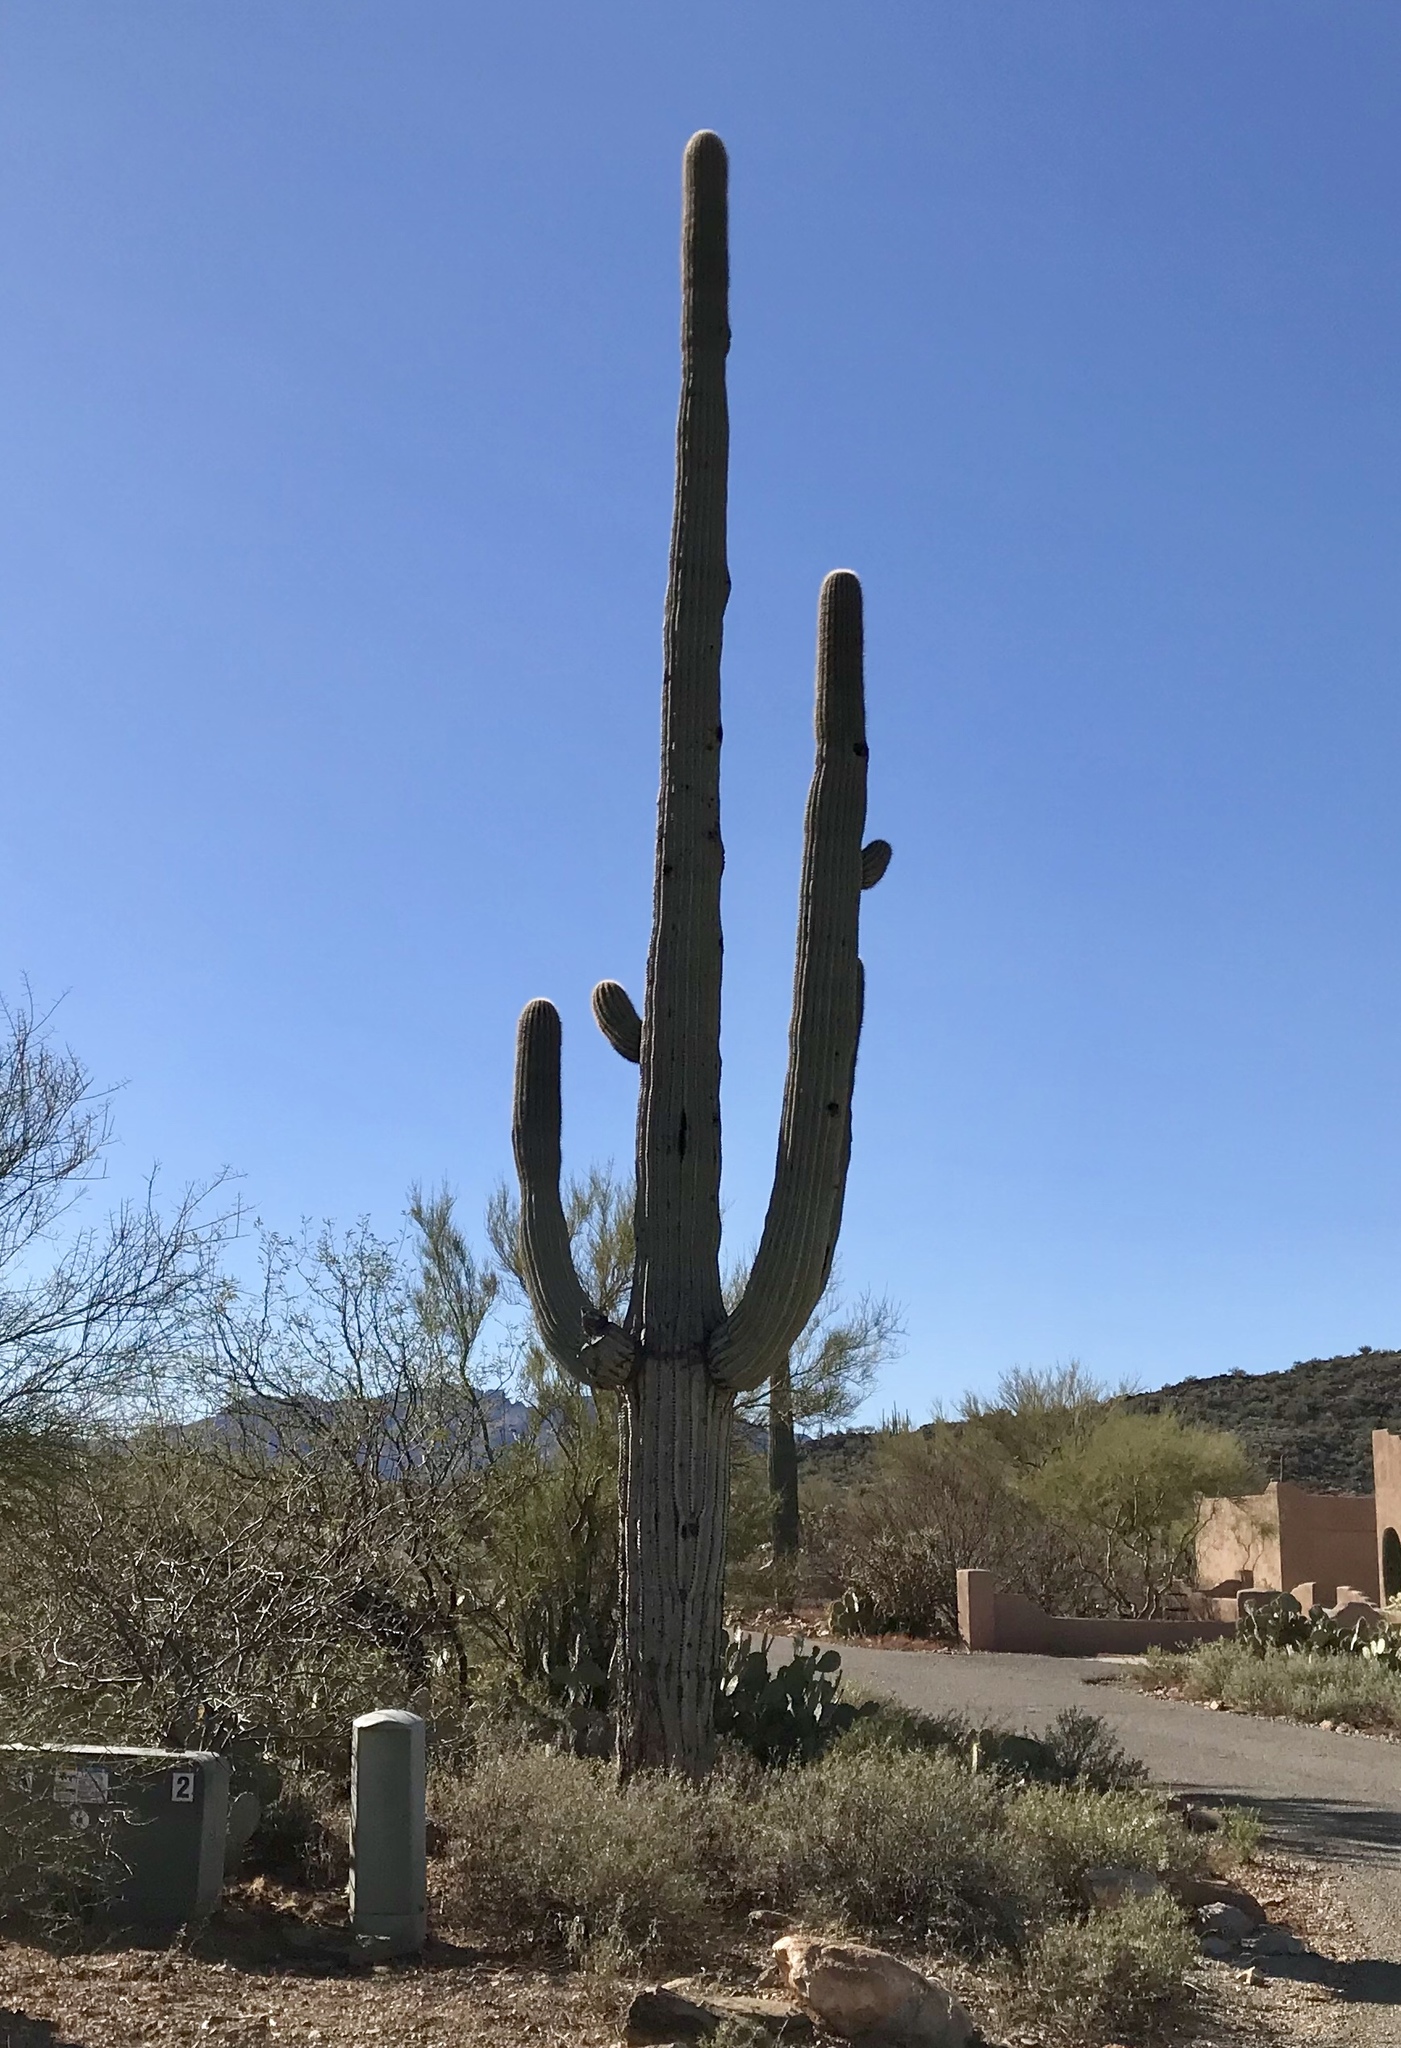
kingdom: Plantae
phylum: Tracheophyta
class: Magnoliopsida
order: Caryophyllales
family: Cactaceae
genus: Carnegiea
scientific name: Carnegiea gigantea
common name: Saguaro
